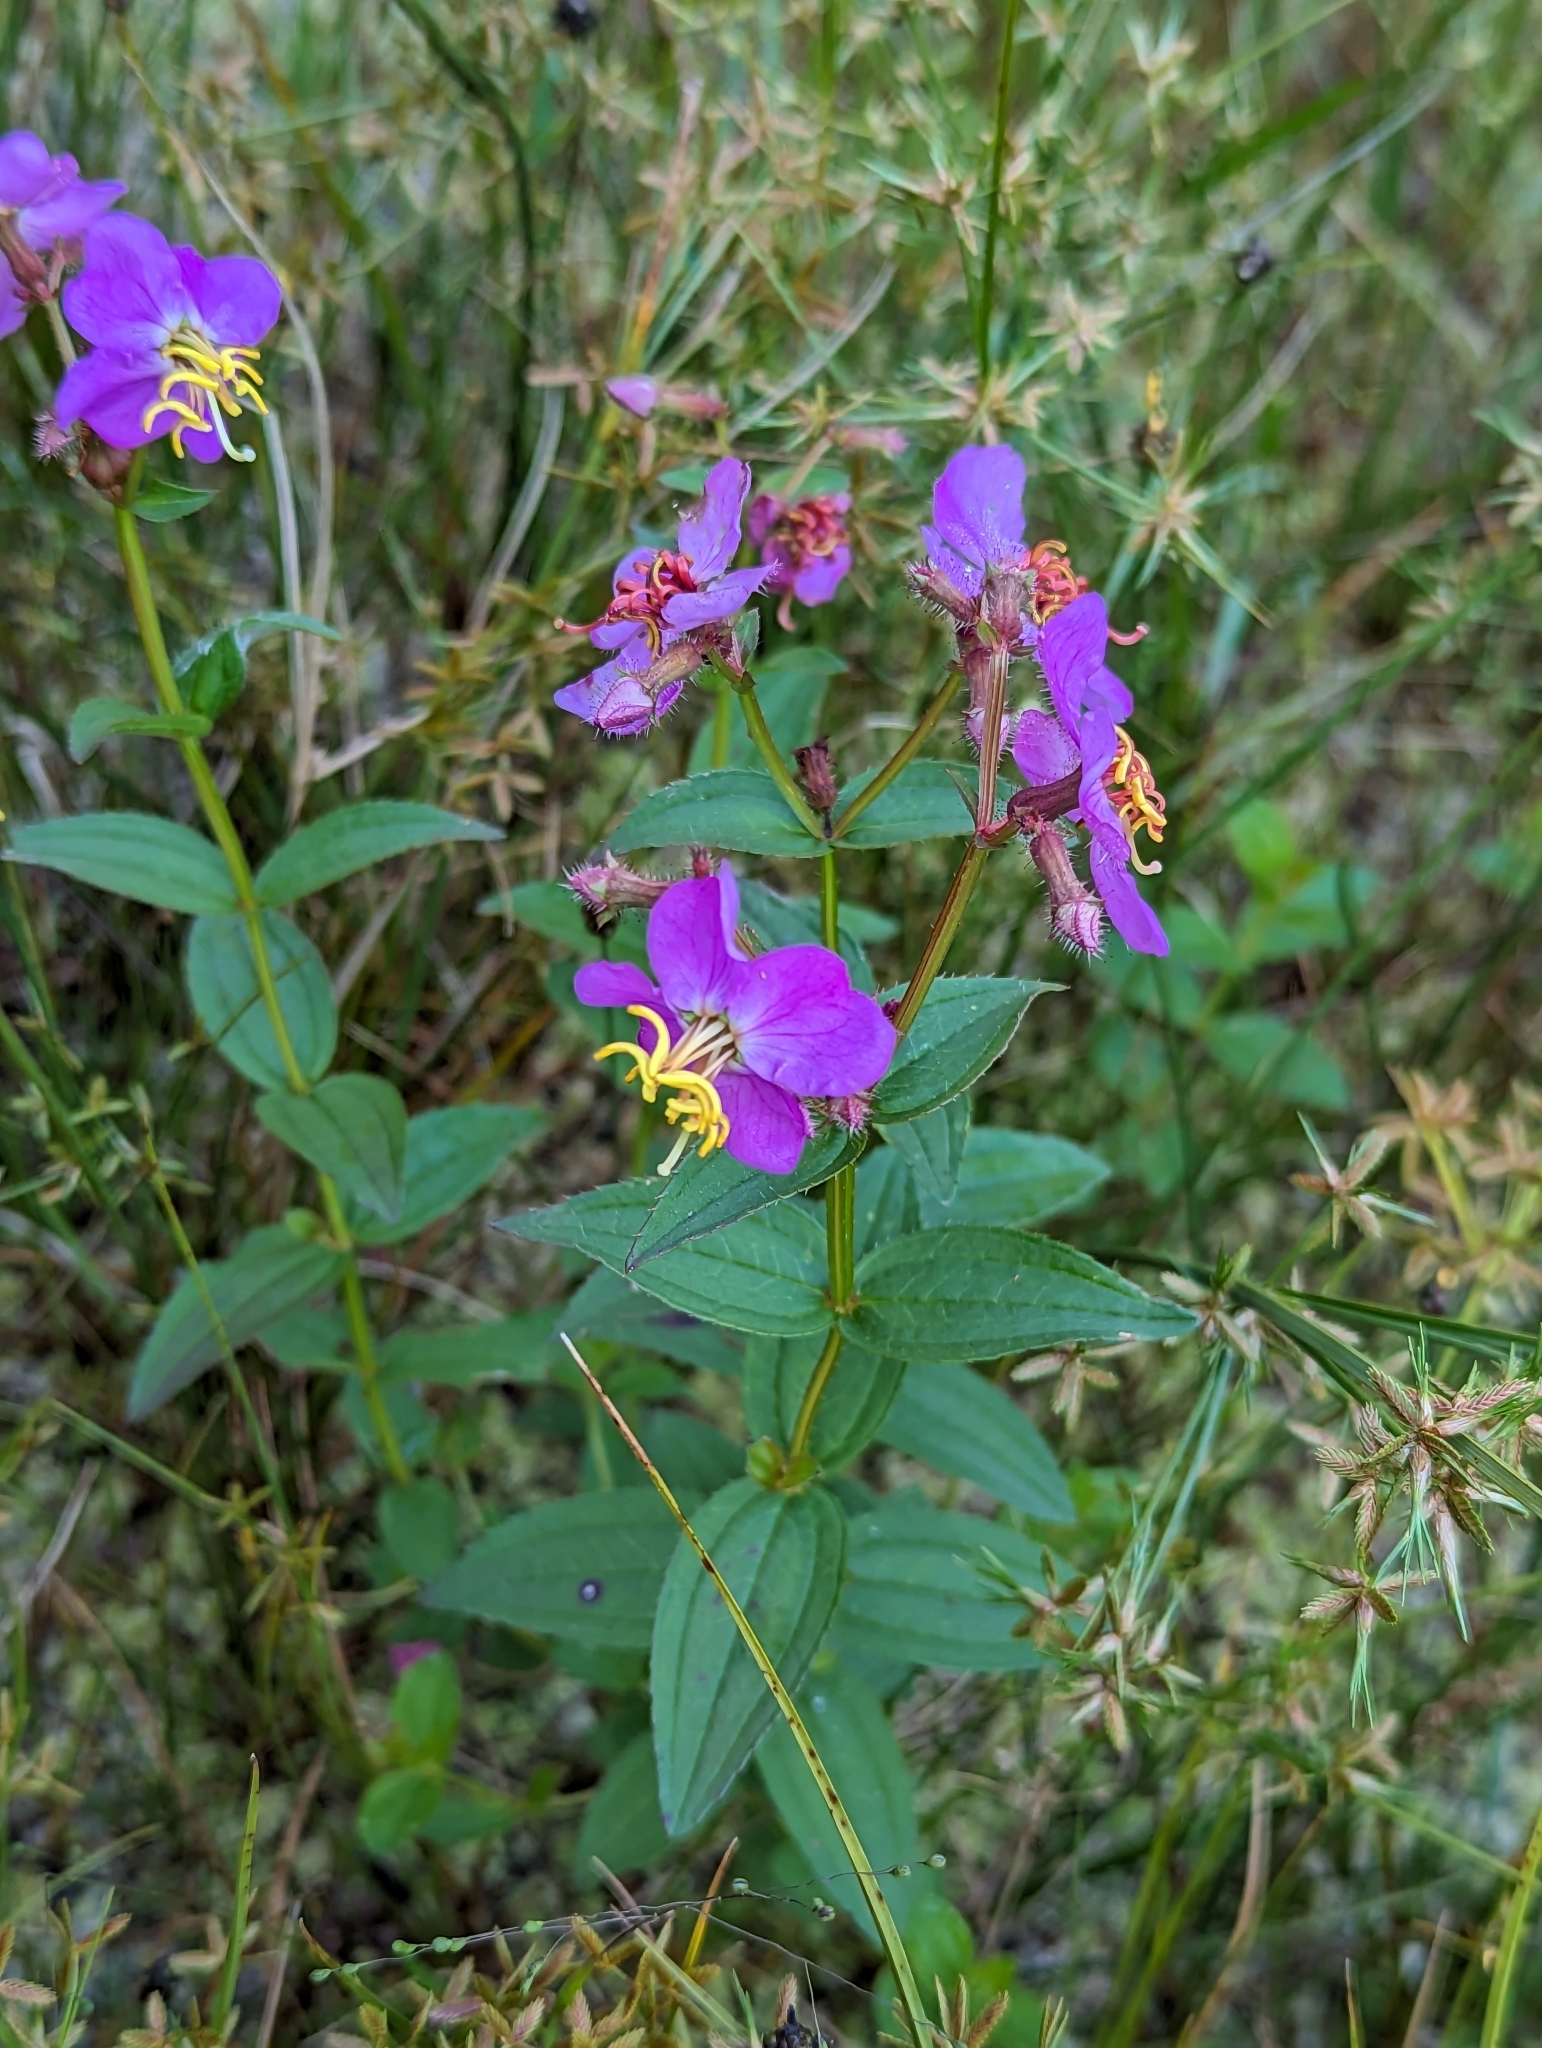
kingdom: Plantae
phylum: Tracheophyta
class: Magnoliopsida
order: Myrtales
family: Melastomataceae
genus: Rhexia
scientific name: Rhexia virginica
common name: Common meadow beauty
